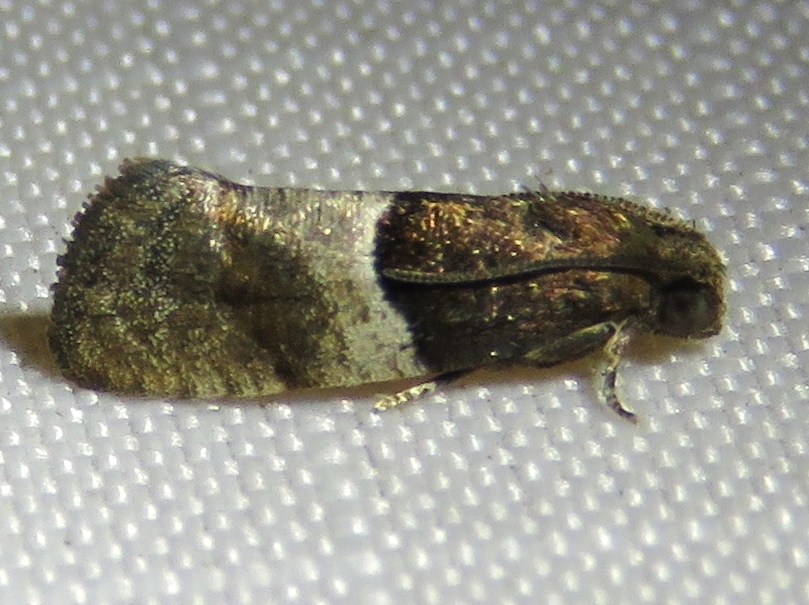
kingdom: Animalia
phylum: Arthropoda
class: Insecta
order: Lepidoptera
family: Tortricidae
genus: Larisa
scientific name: Larisa subsolana
